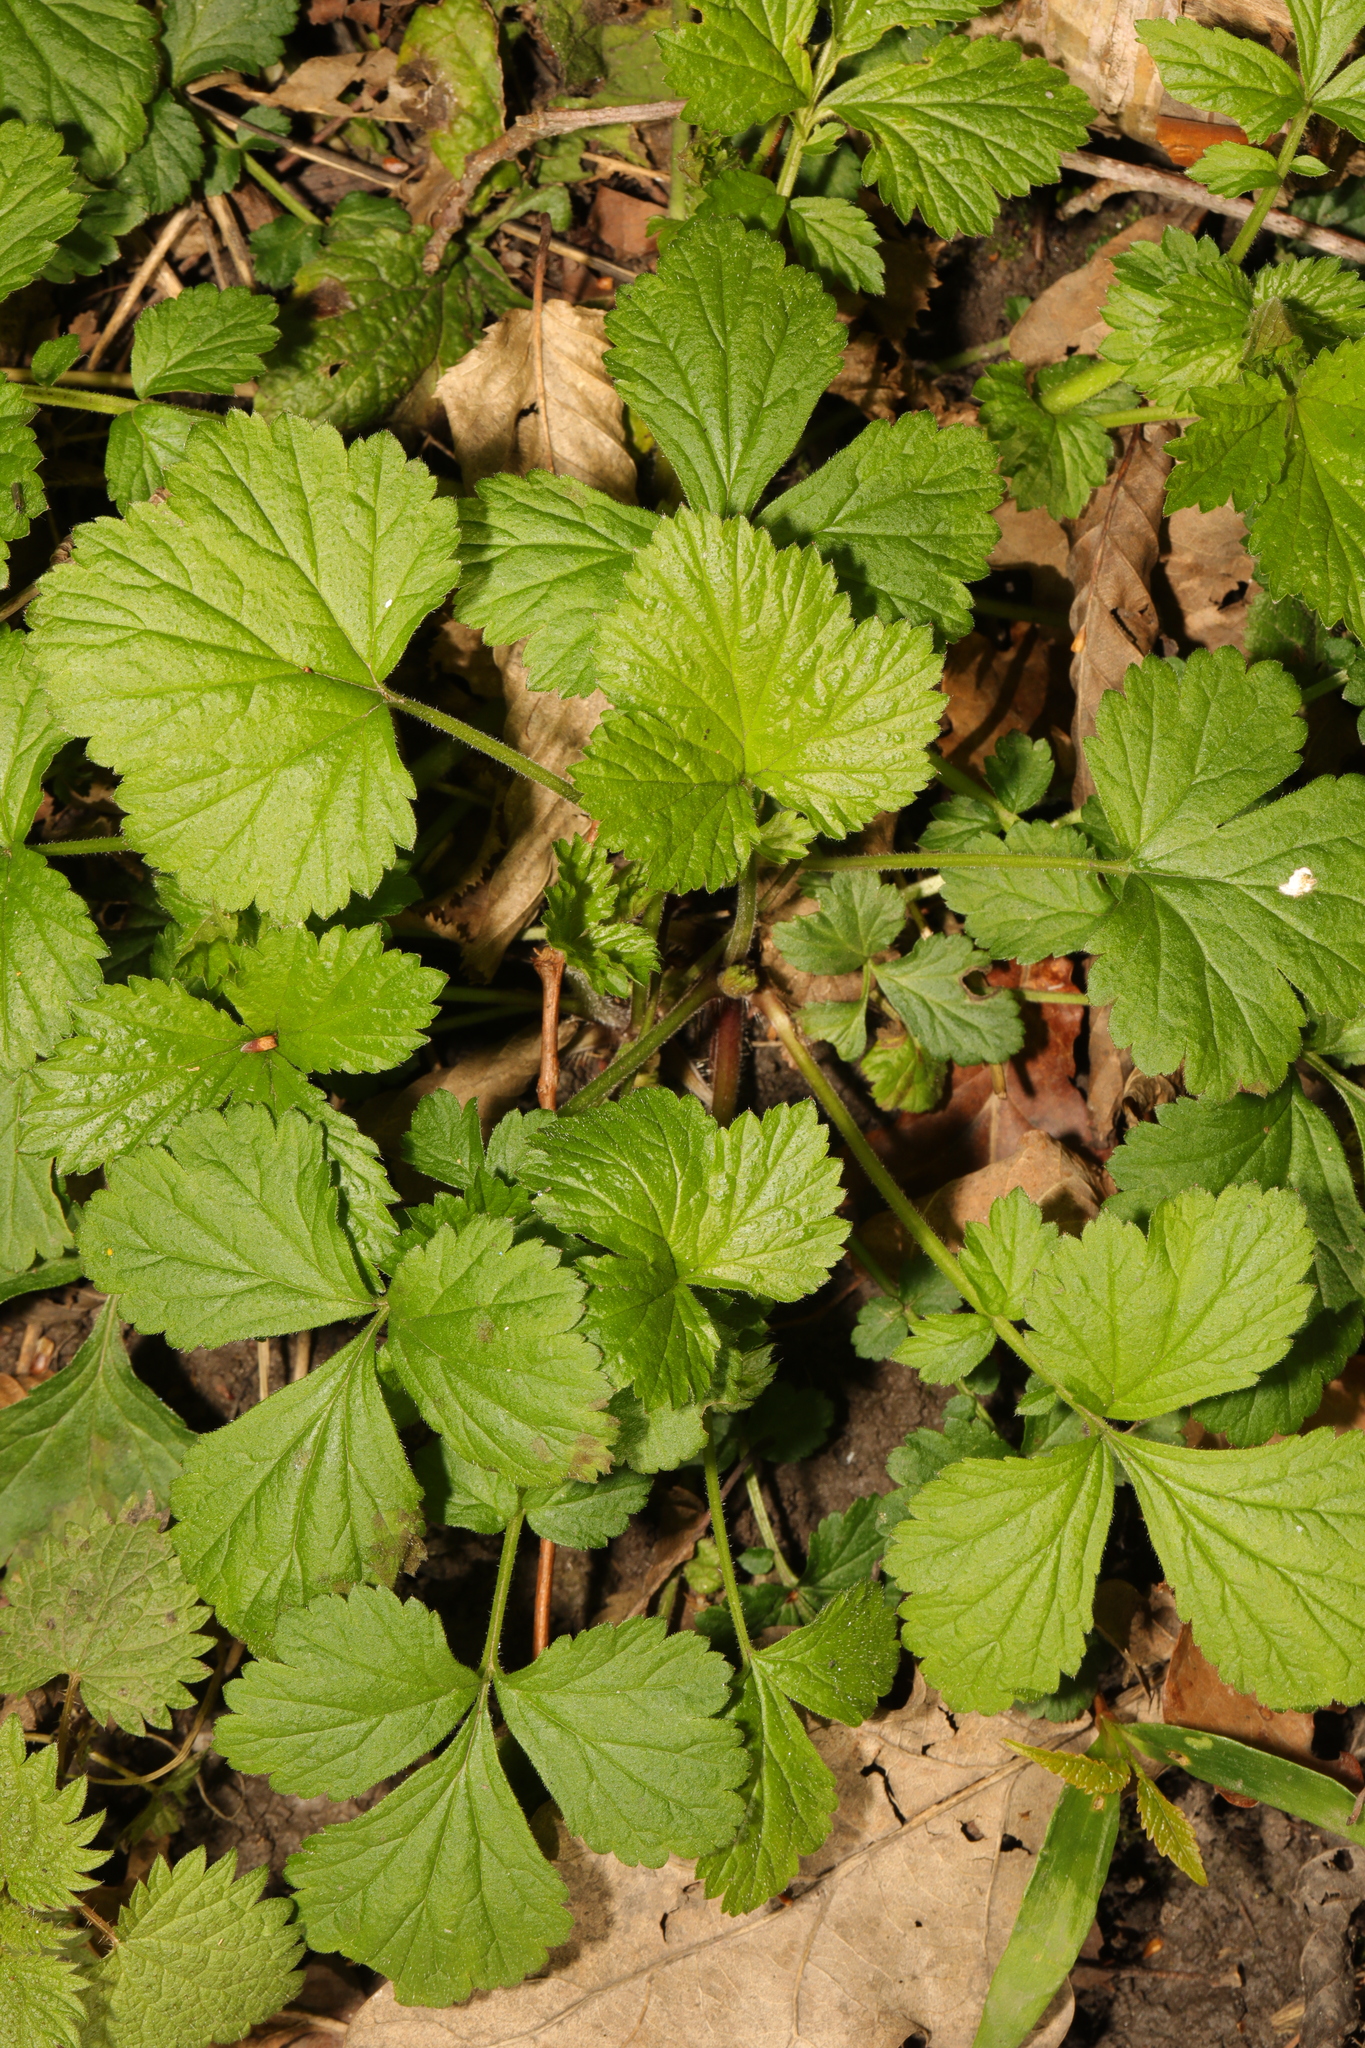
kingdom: Plantae
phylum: Tracheophyta
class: Magnoliopsida
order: Rosales
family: Rosaceae
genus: Geum
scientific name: Geum urbanum
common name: Wood avens
